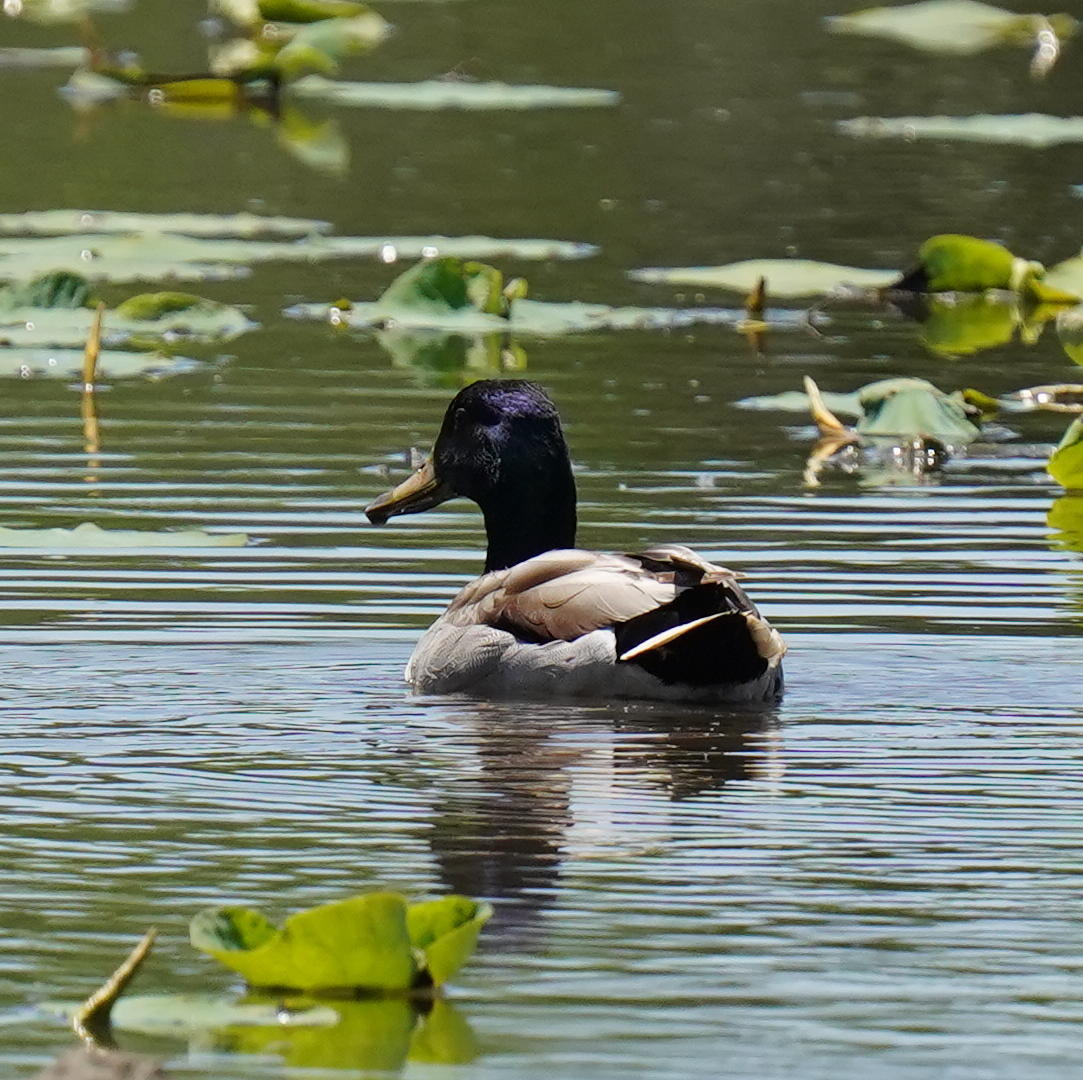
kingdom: Animalia
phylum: Chordata
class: Aves
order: Anseriformes
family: Anatidae
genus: Anas
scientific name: Anas platyrhynchos
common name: Mallard
